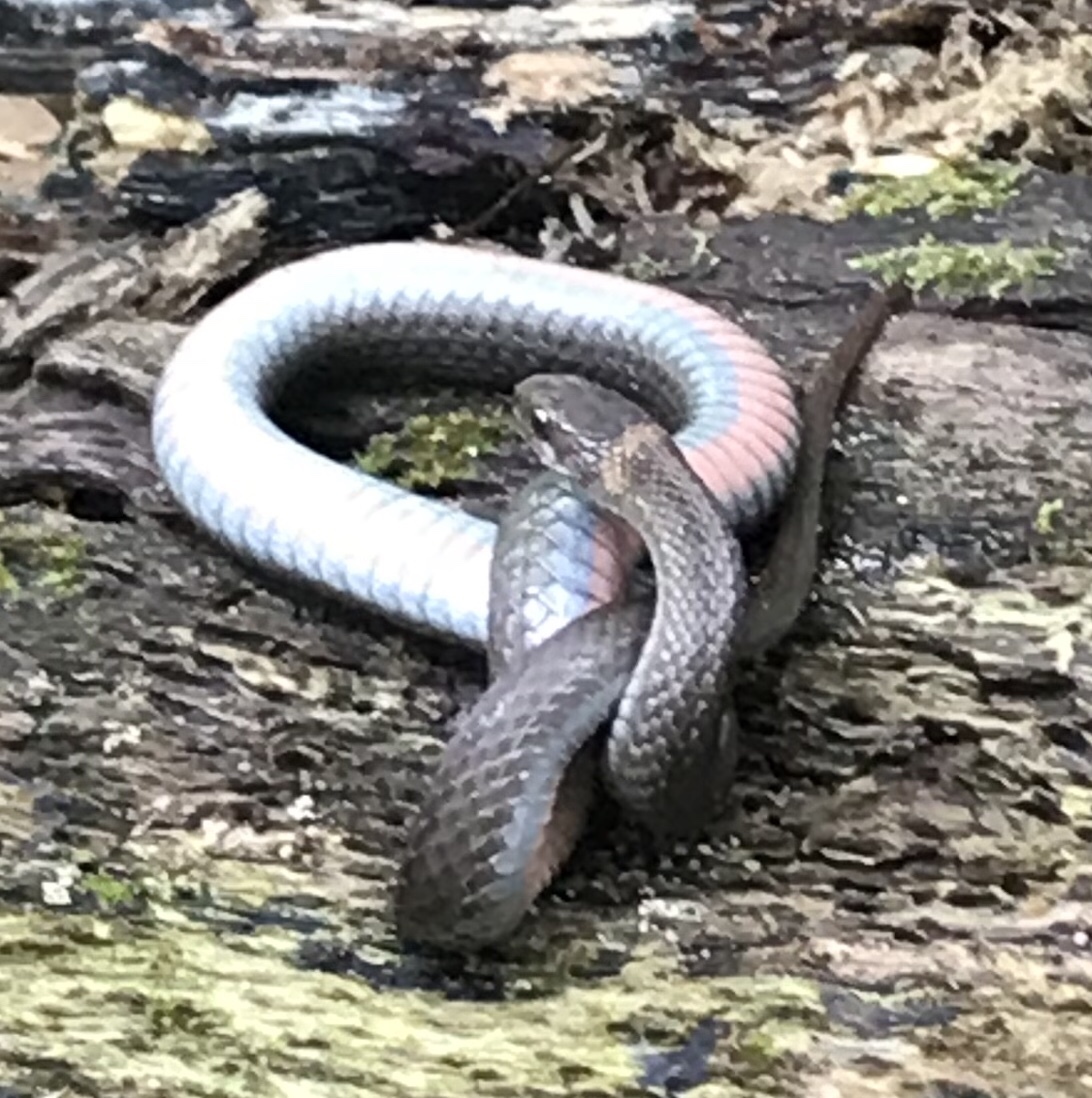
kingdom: Animalia
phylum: Chordata
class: Squamata
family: Colubridae
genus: Storeria
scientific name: Storeria occipitomaculata
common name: Redbelly snake
